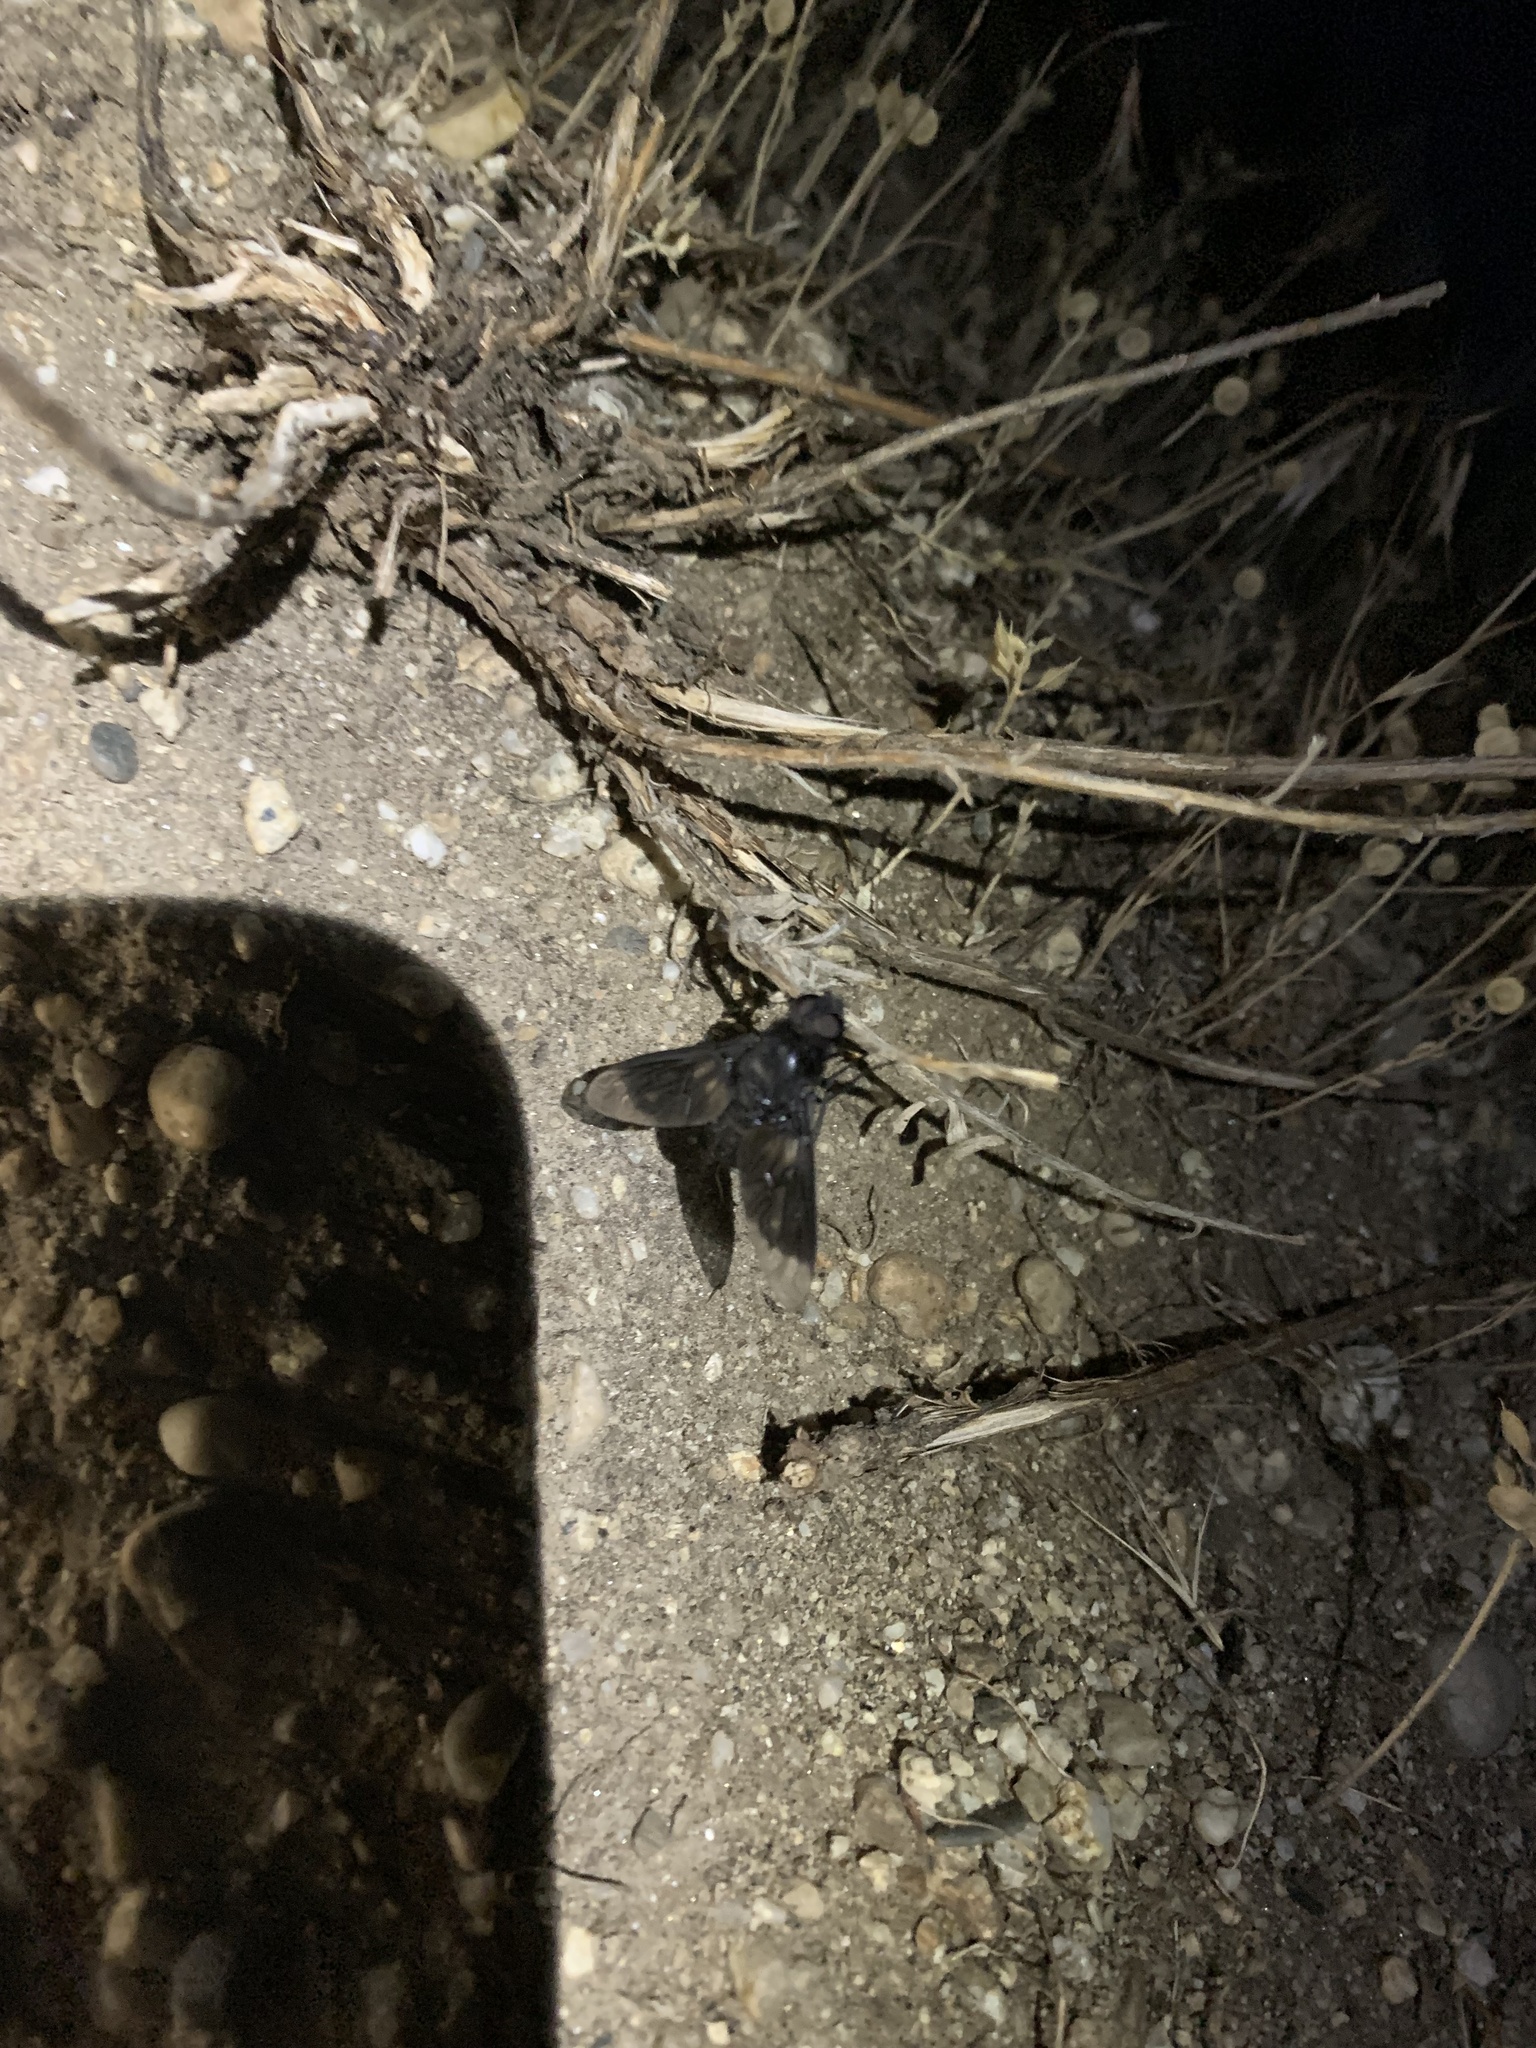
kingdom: Animalia
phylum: Arthropoda
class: Insecta
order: Diptera
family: Bombyliidae
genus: Thyridanthrax
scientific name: Thyridanthrax atratus
